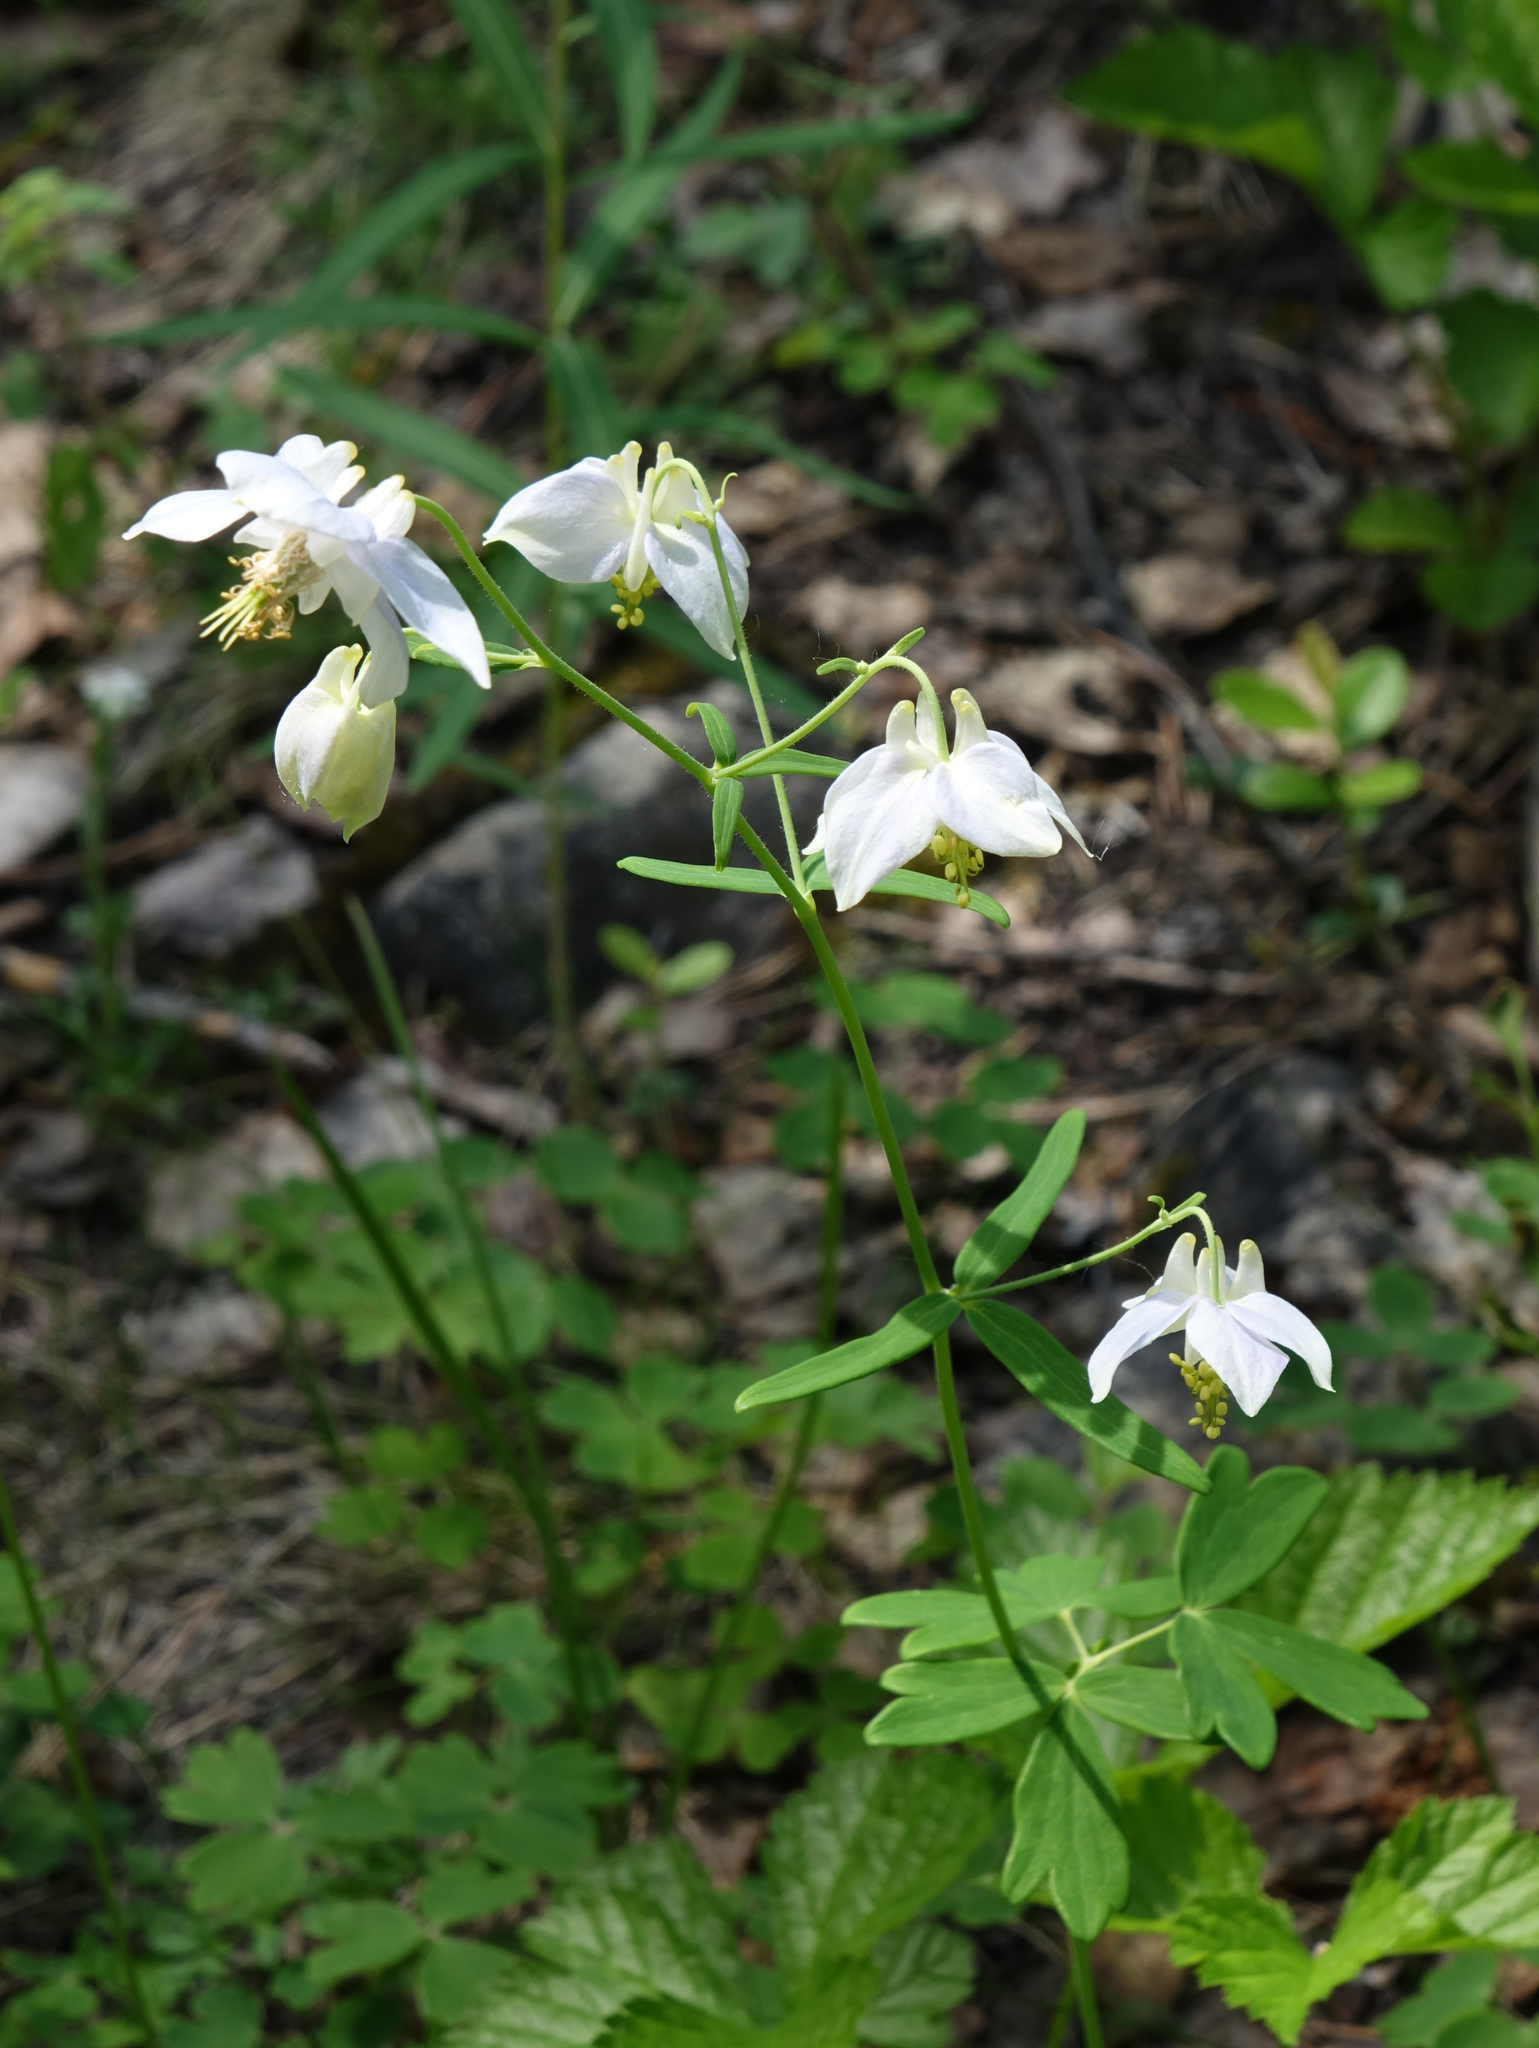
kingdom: Plantae
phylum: Tracheophyta
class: Magnoliopsida
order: Ranunculales
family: Ranunculaceae
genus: Aquilegia
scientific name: Aquilegia parviflora
